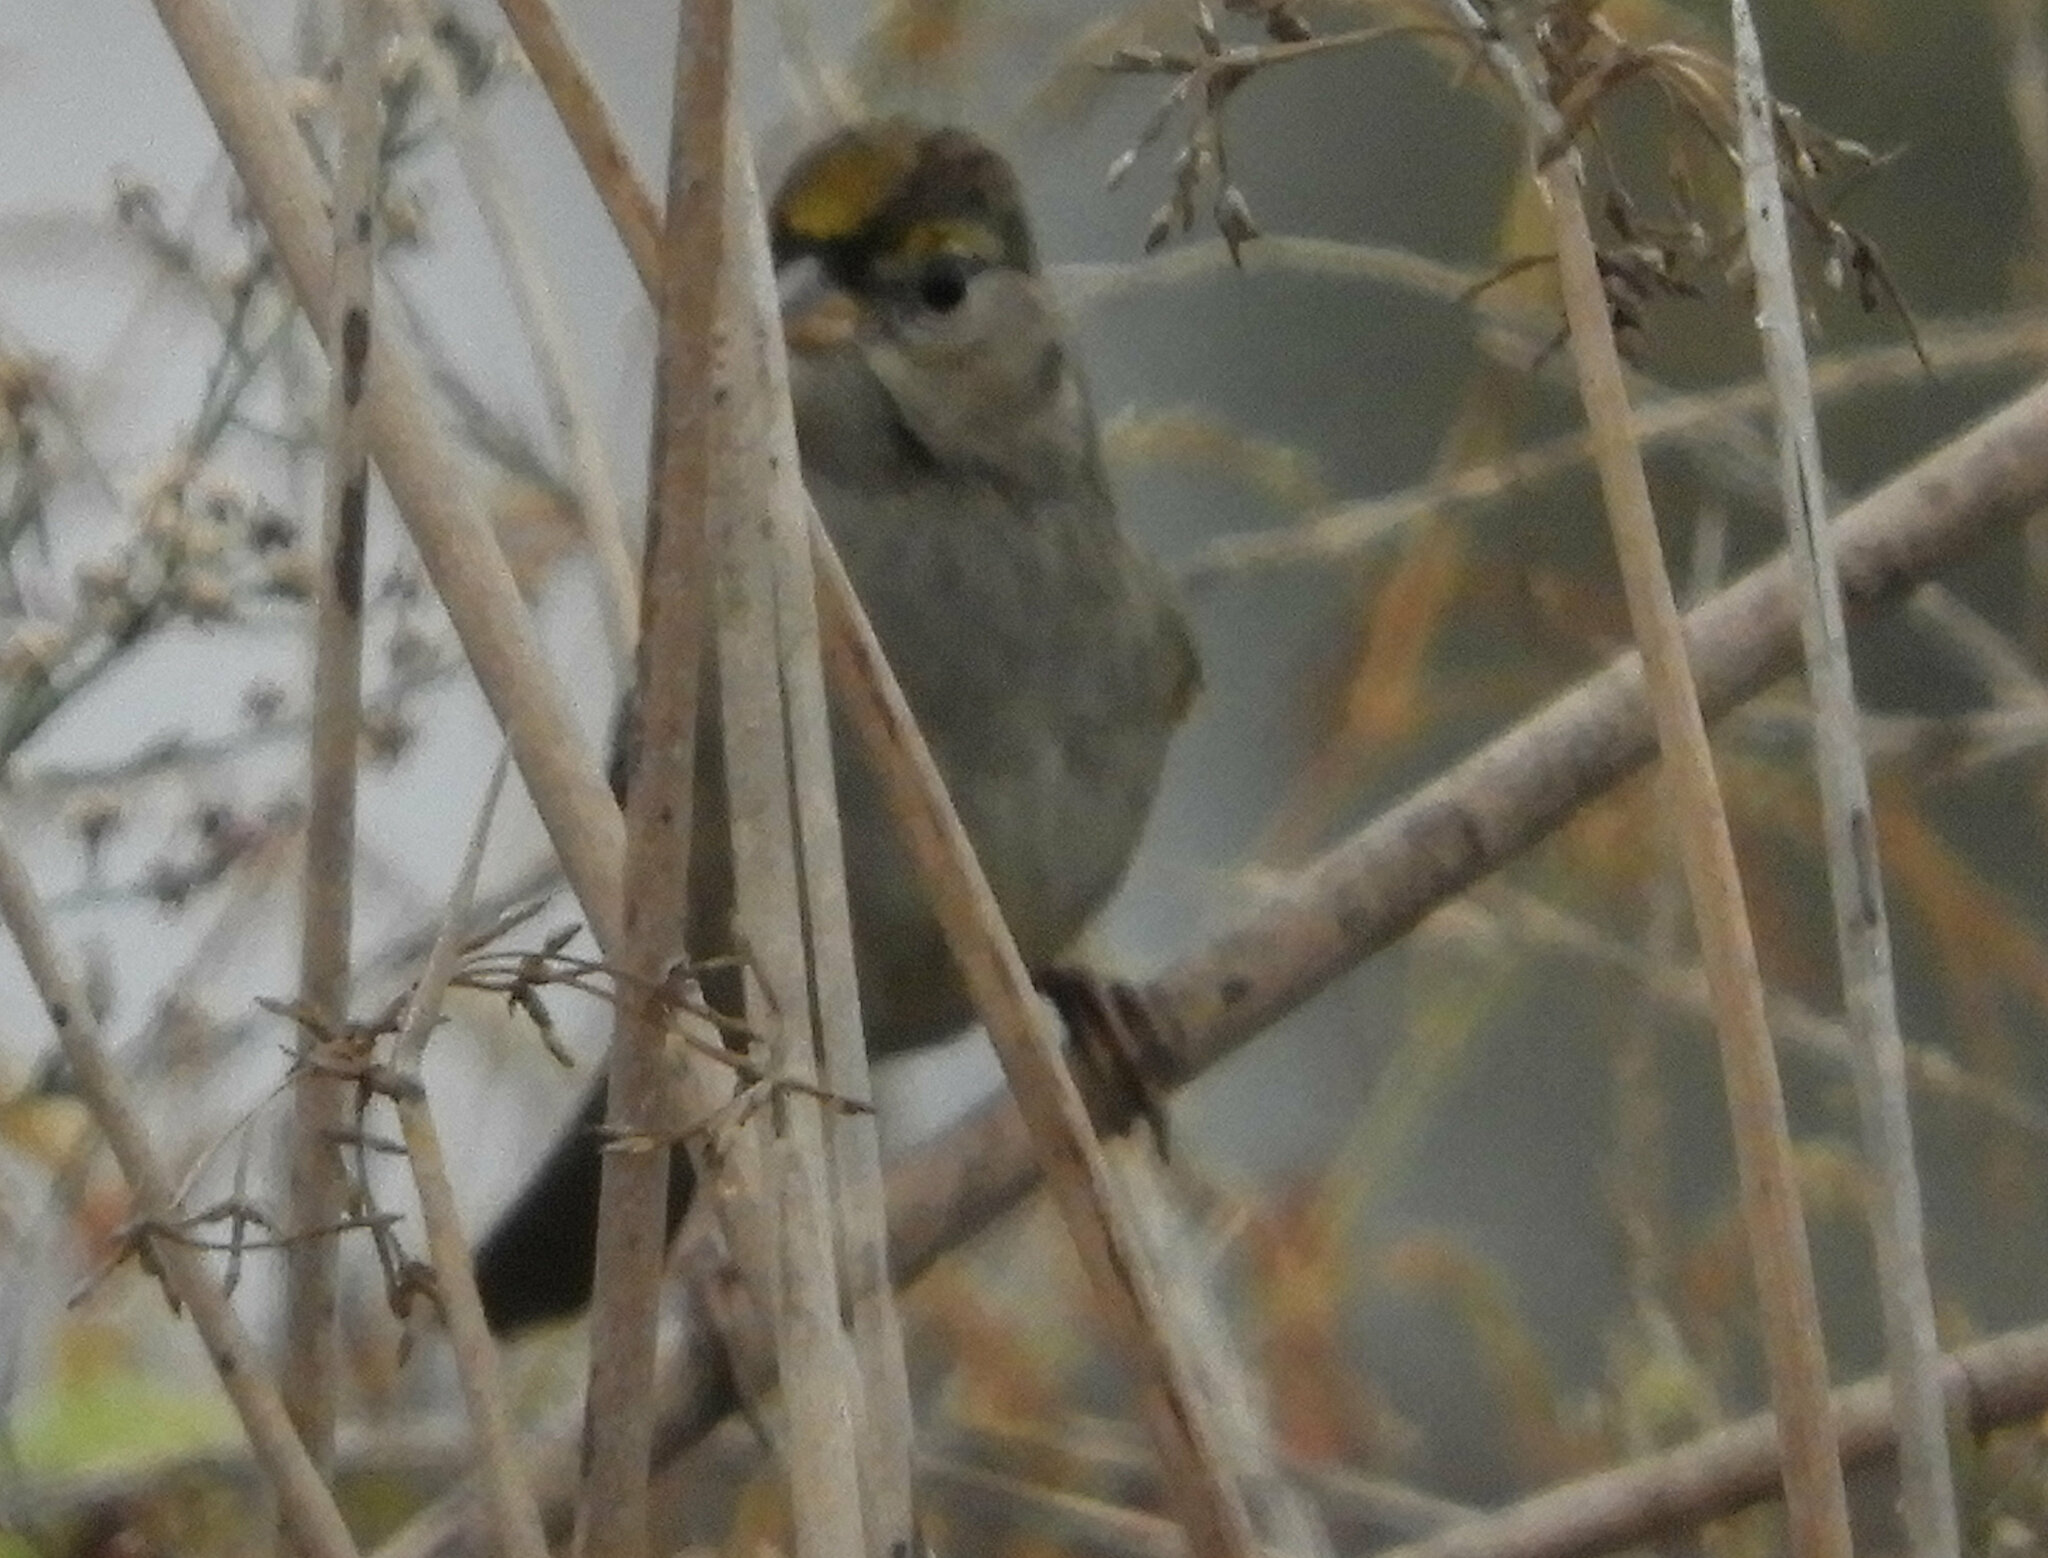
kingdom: Animalia
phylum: Chordata
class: Aves
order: Passeriformes
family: Passerellidae
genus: Zonotrichia
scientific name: Zonotrichia atricapilla
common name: Golden-crowned sparrow
